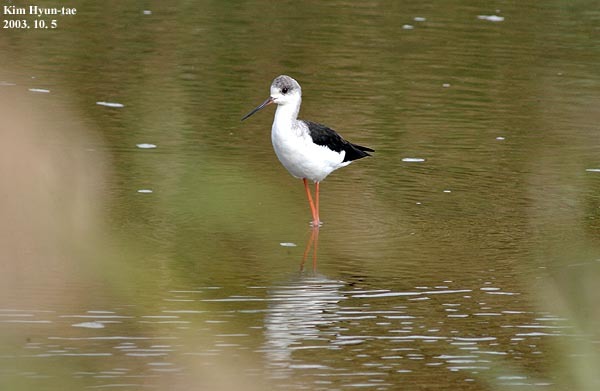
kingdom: Animalia
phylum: Chordata
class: Aves
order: Charadriiformes
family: Recurvirostridae
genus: Himantopus
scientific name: Himantopus himantopus
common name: Black-winged stilt
